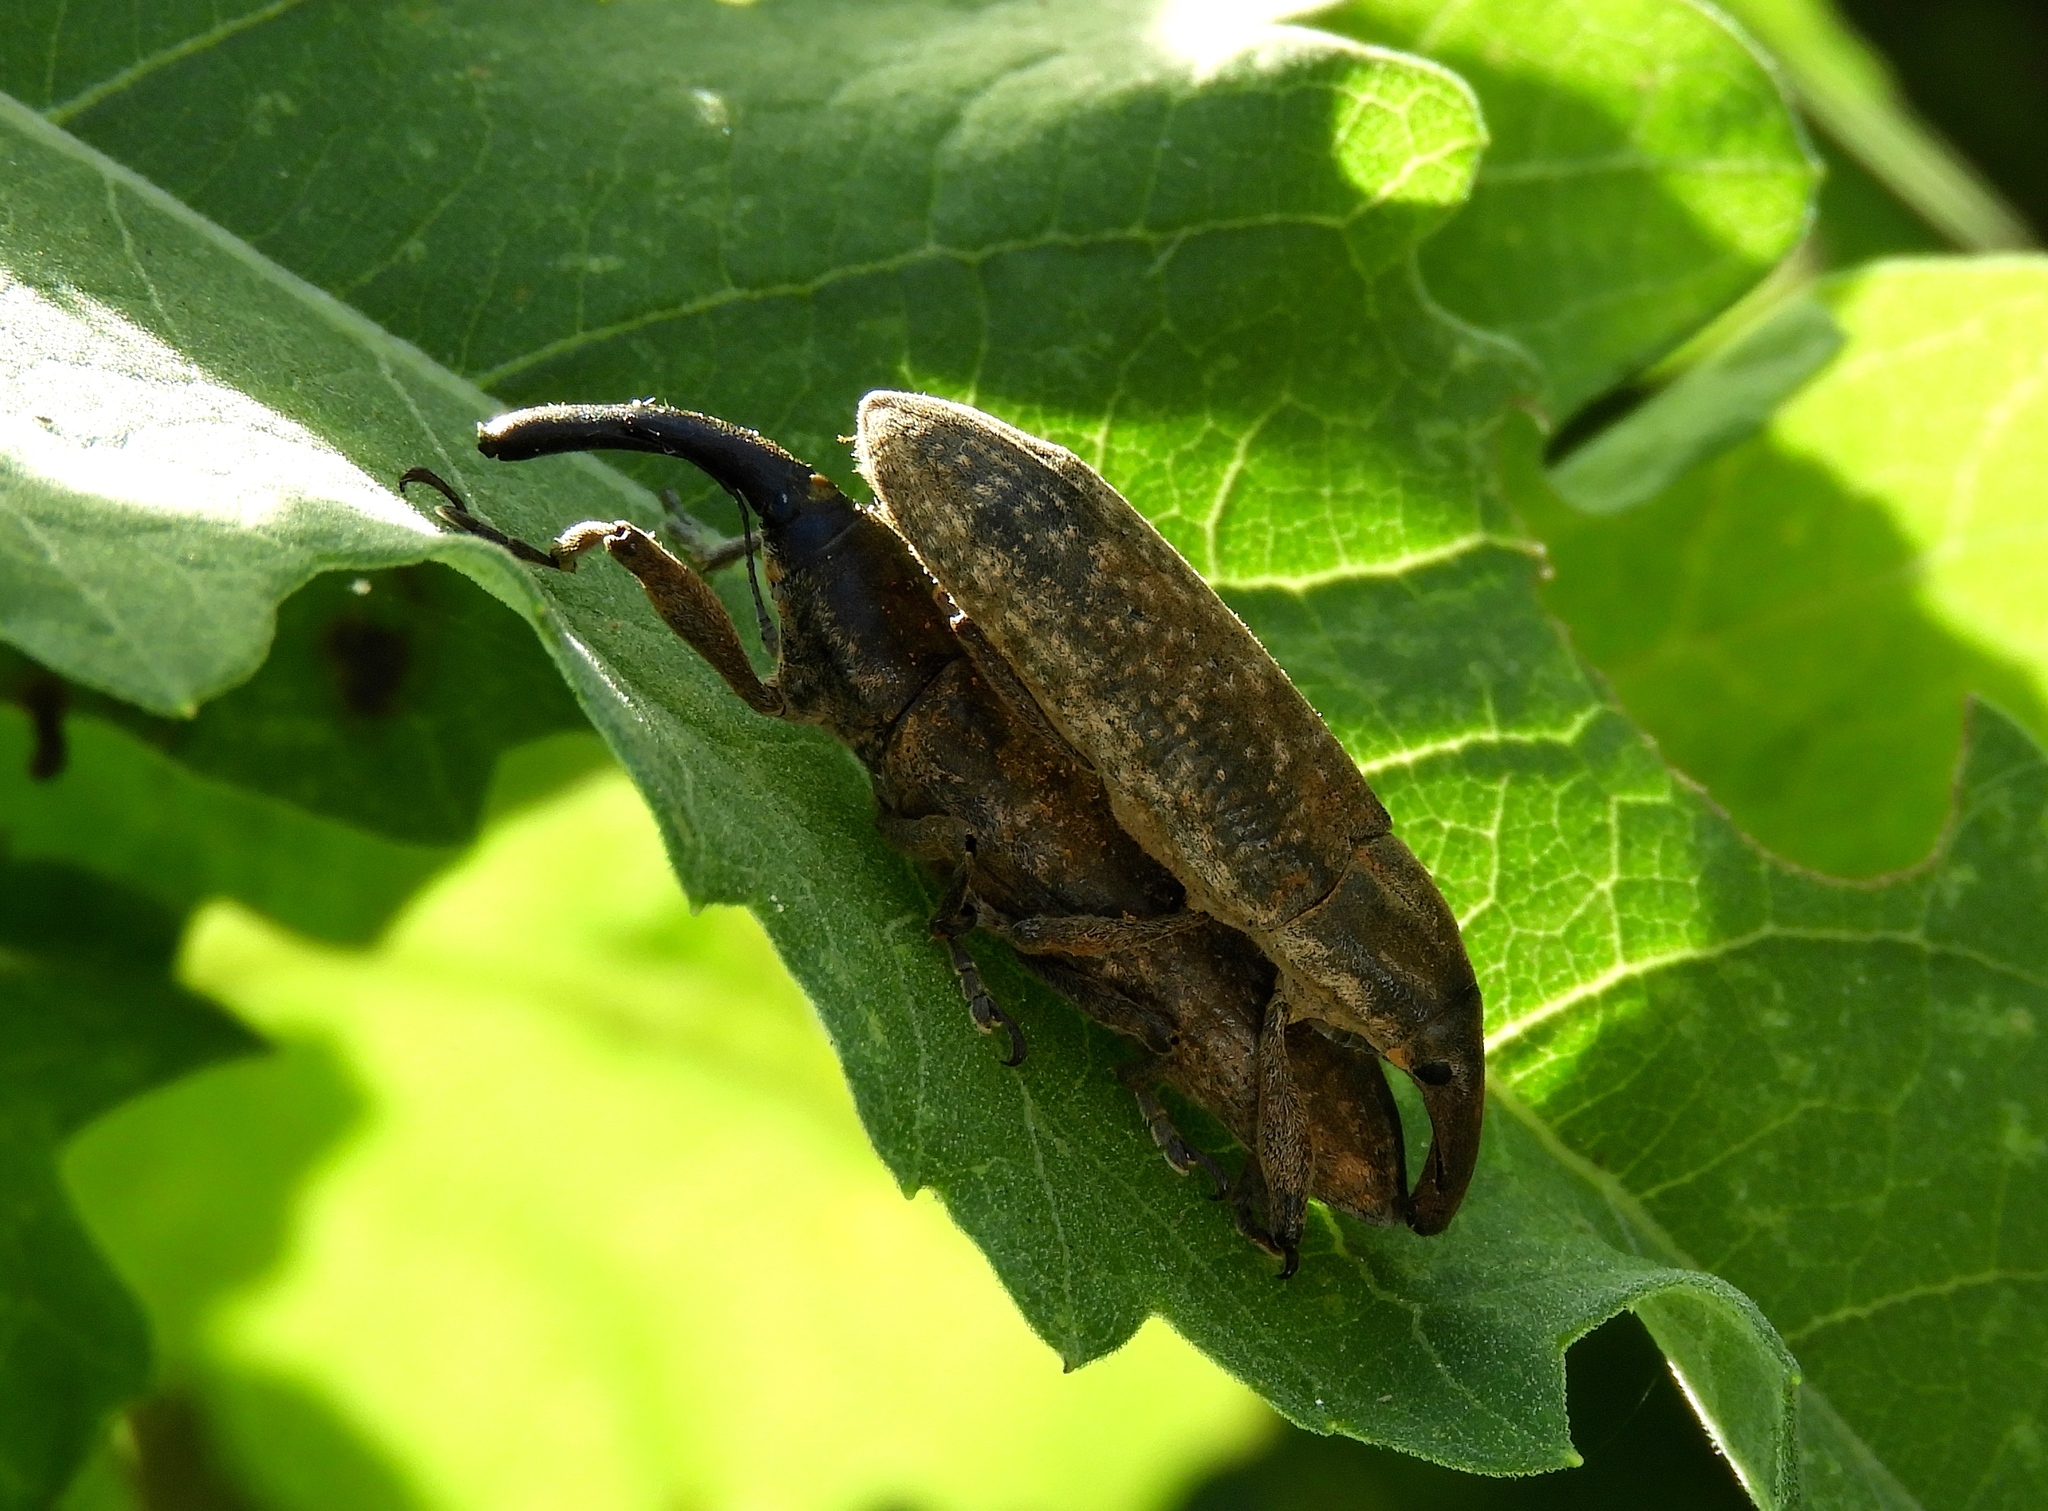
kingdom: Animalia
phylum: Arthropoda
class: Insecta
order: Coleoptera
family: Curculionidae
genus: Lixus
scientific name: Lixus
